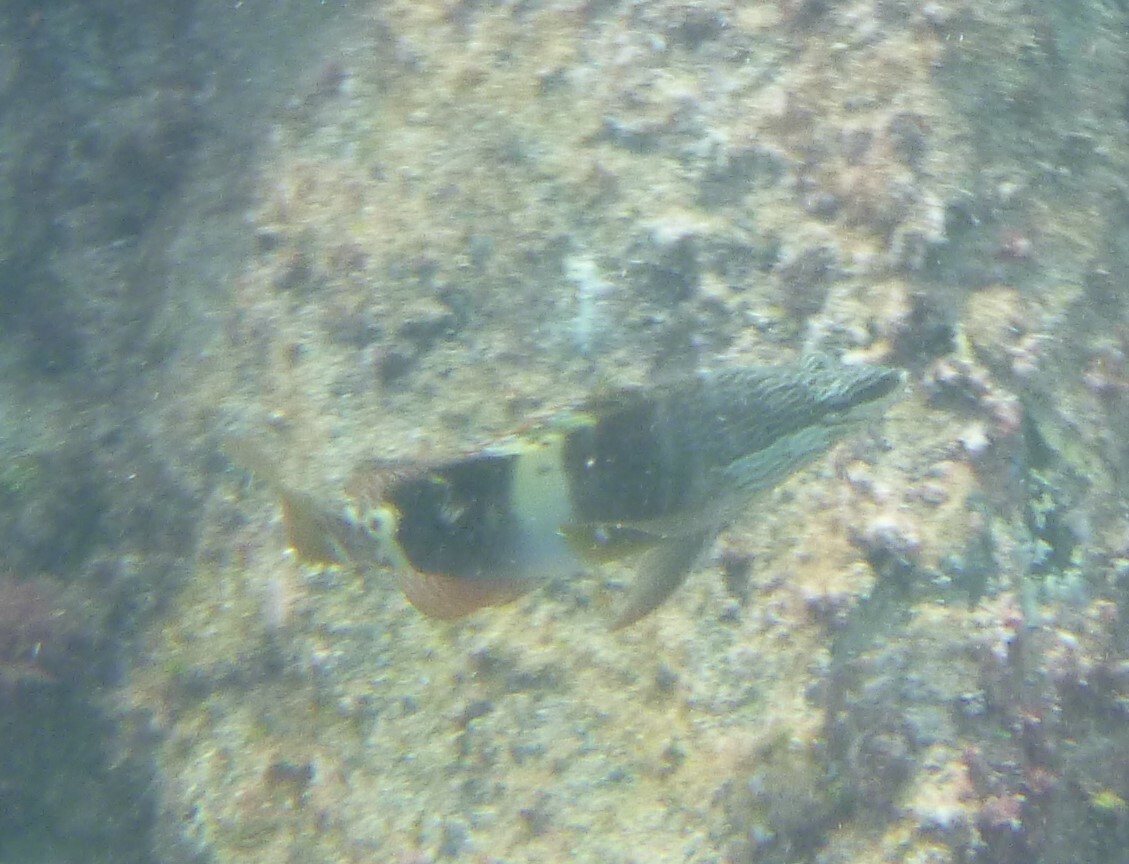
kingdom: Animalia
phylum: Chordata
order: Perciformes
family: Serranidae
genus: Serranus
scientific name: Serranus scriba
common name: Painted comber
